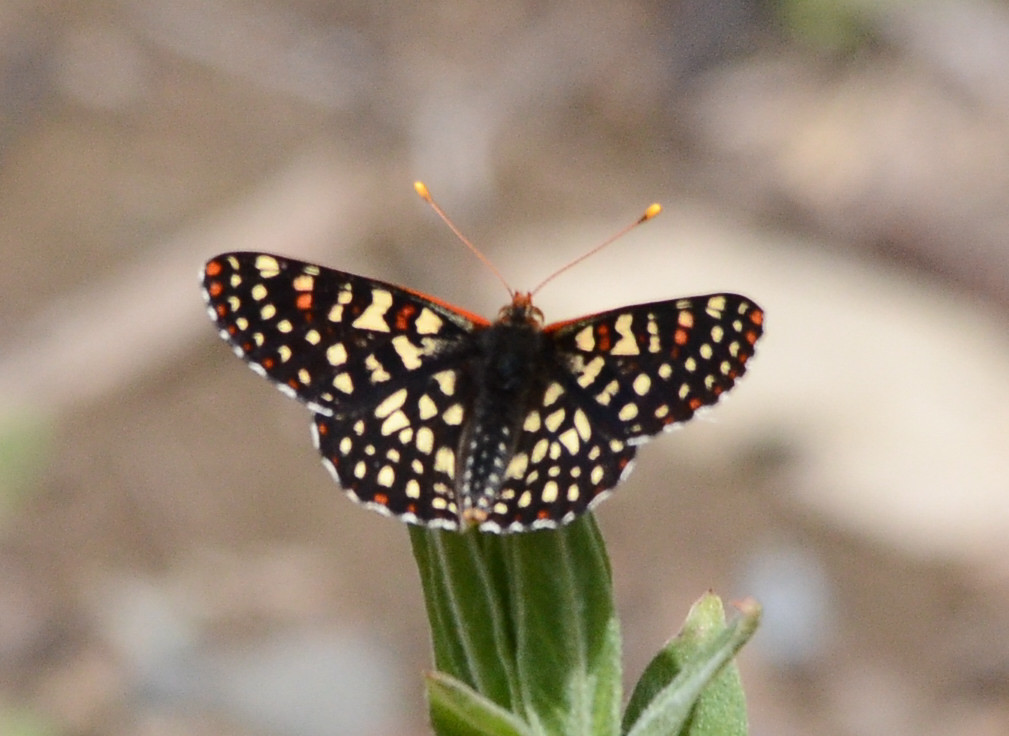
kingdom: Animalia
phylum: Arthropoda
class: Insecta
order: Lepidoptera
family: Nymphalidae
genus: Occidryas
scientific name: Occidryas chalcedona
